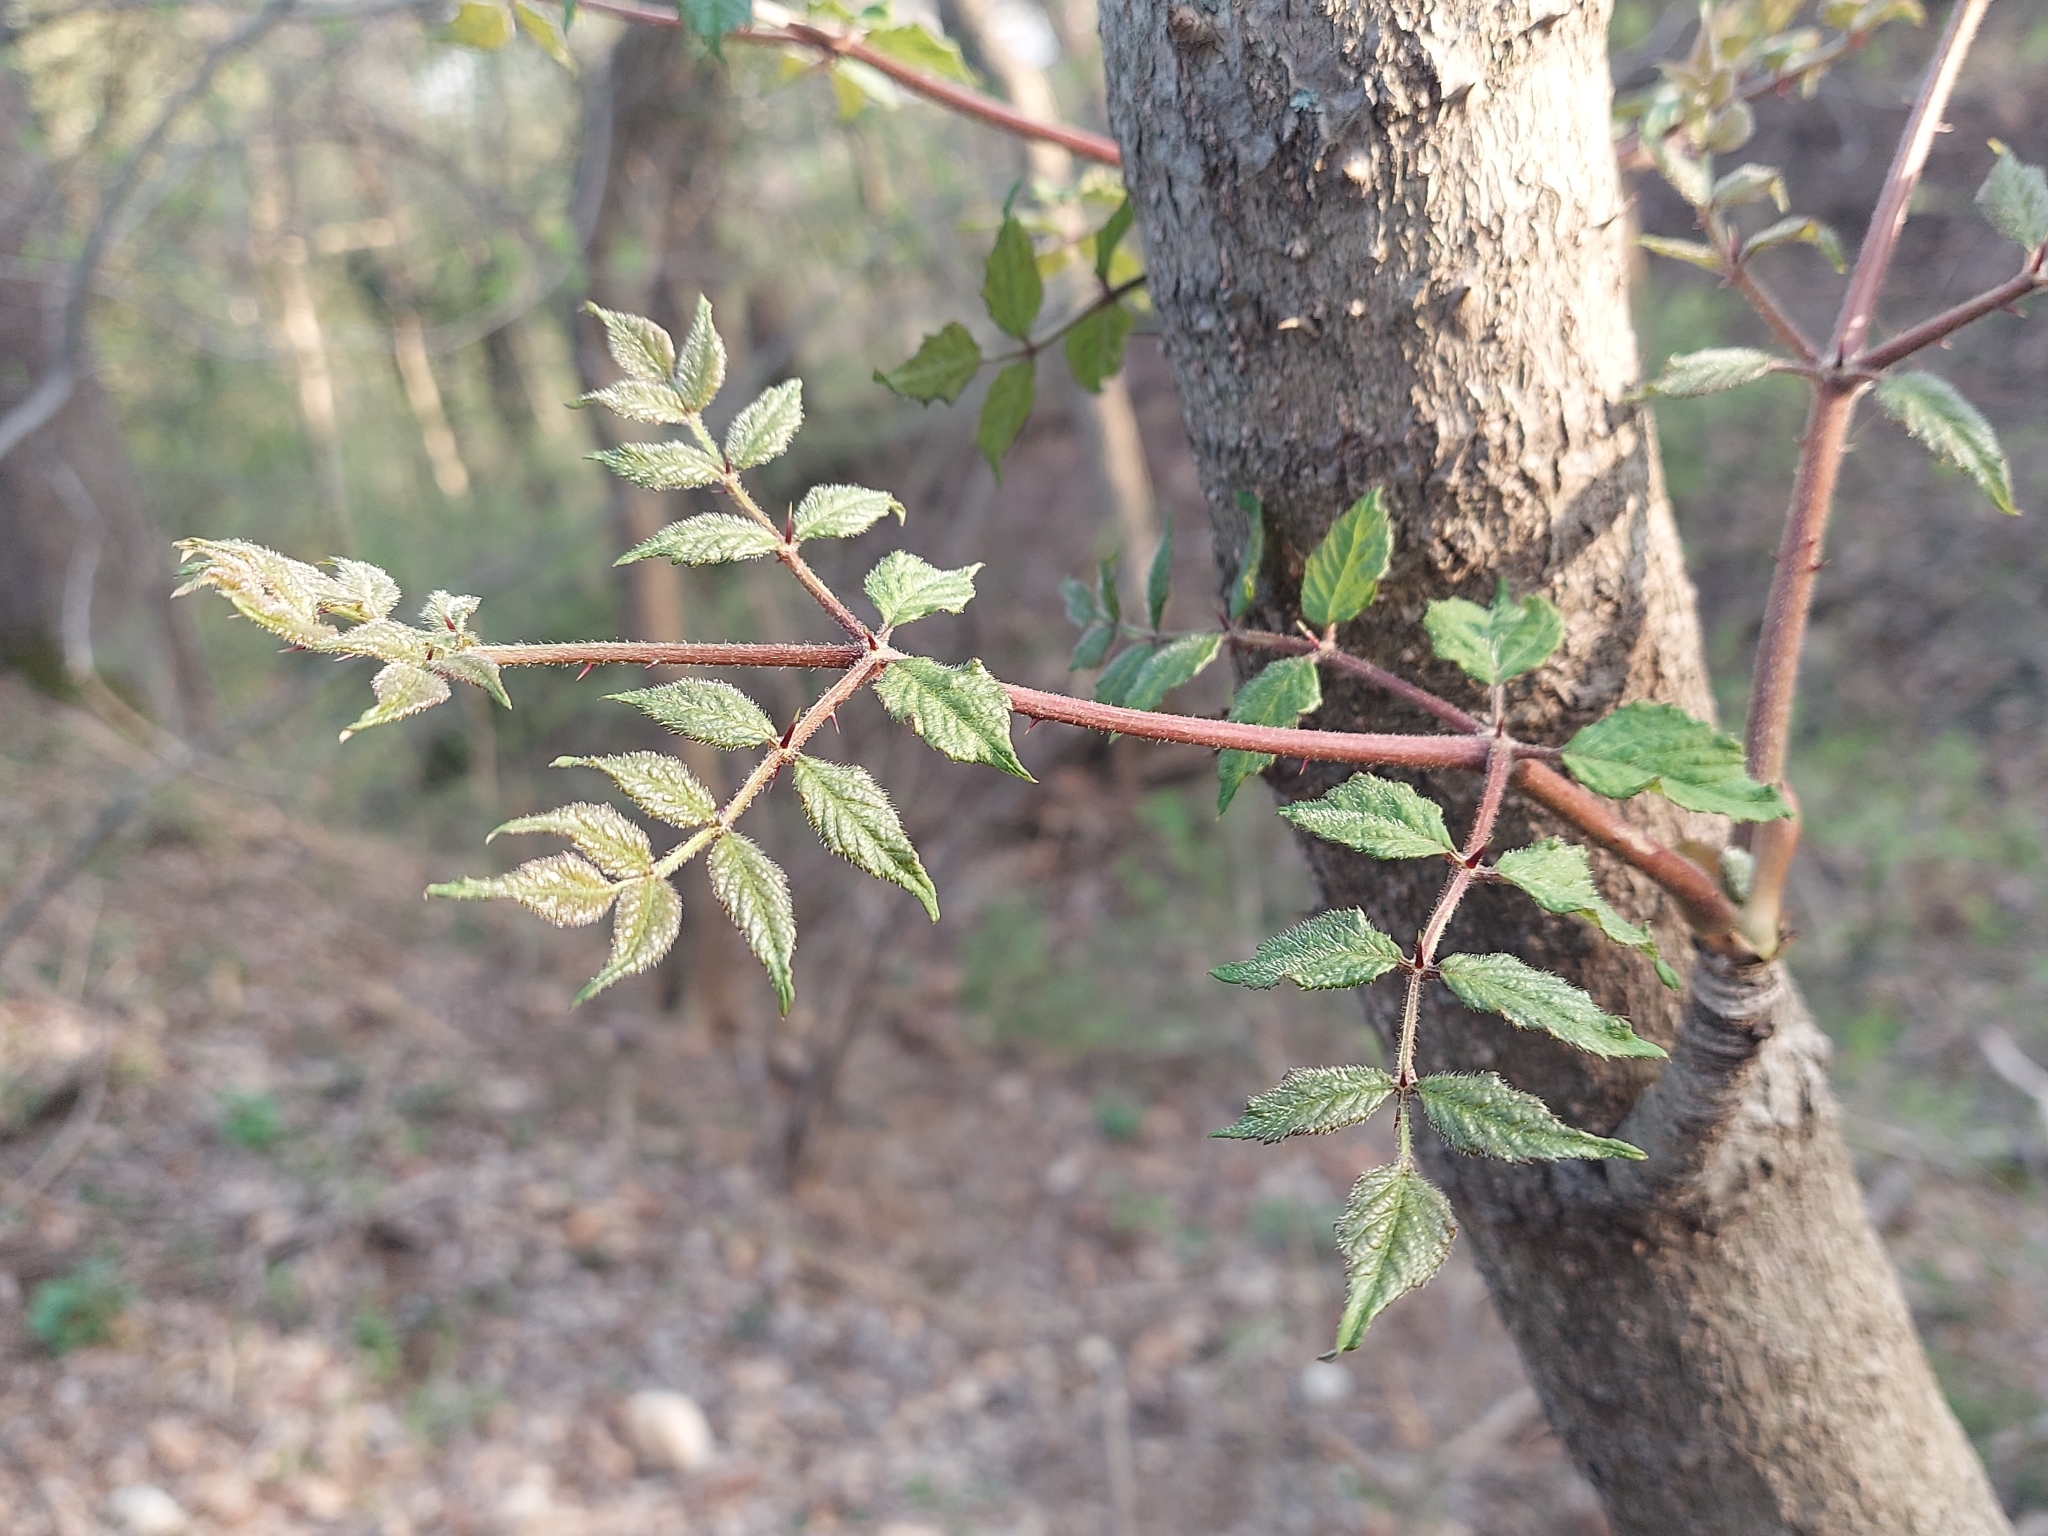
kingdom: Plantae
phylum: Tracheophyta
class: Magnoliopsida
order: Apiales
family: Araliaceae
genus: Aralia
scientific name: Aralia elata
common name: Japanese angelica-tree
